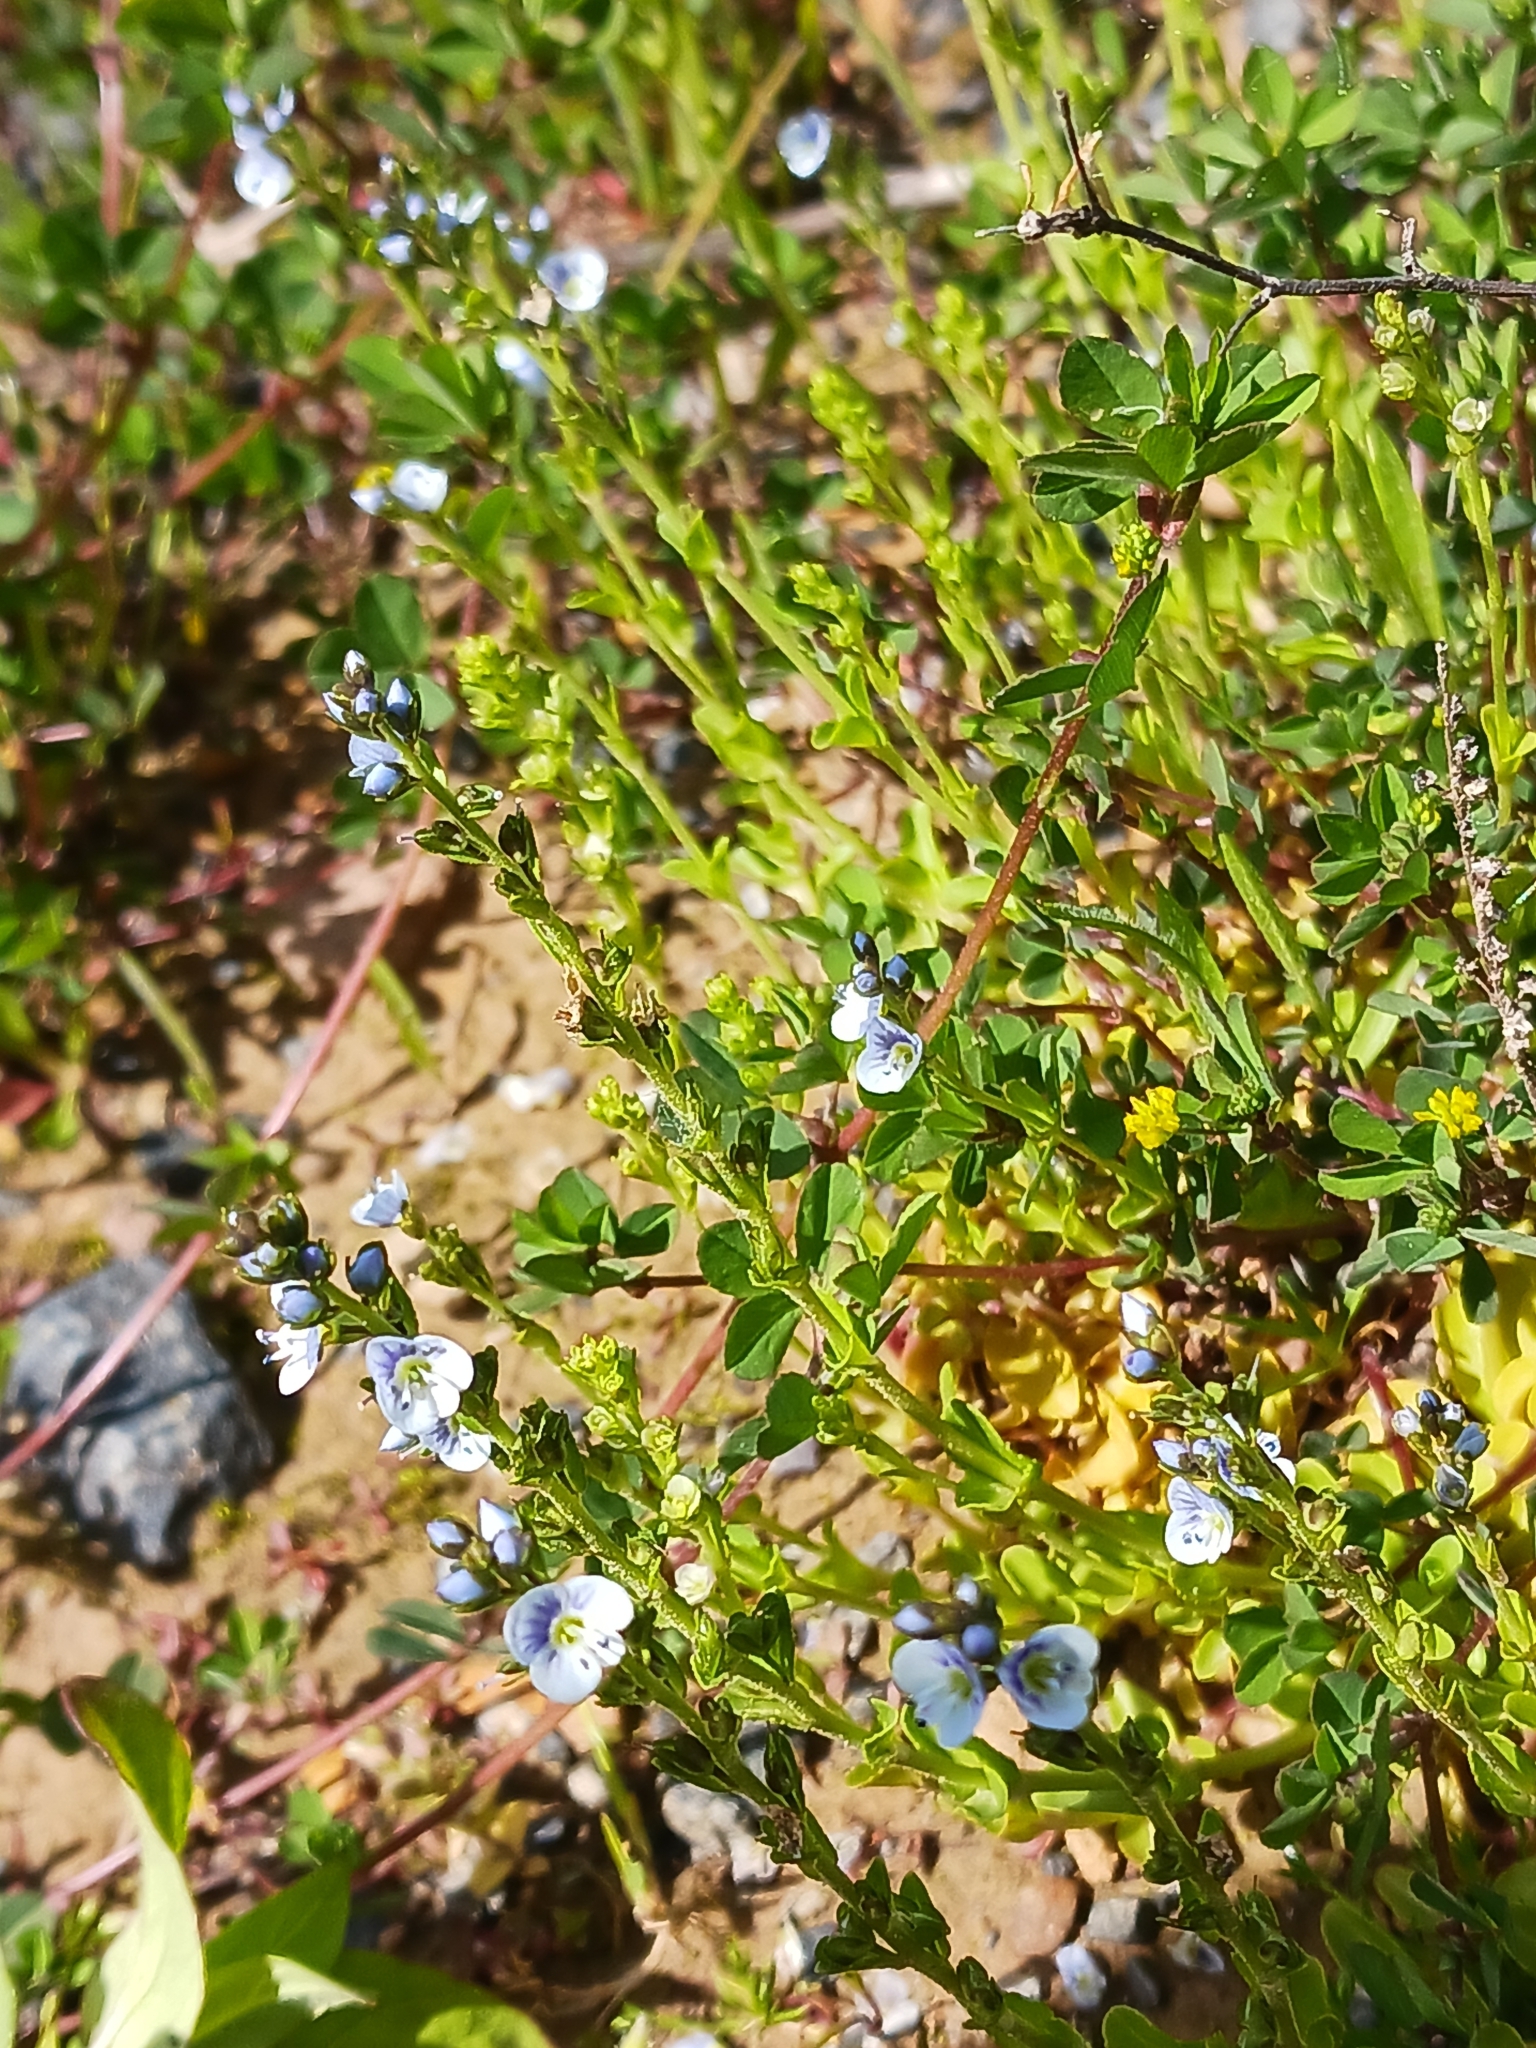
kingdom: Plantae
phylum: Tracheophyta
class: Magnoliopsida
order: Lamiales
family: Plantaginaceae
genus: Veronica
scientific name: Veronica serpyllifolia
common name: Thyme-leaved speedwell
